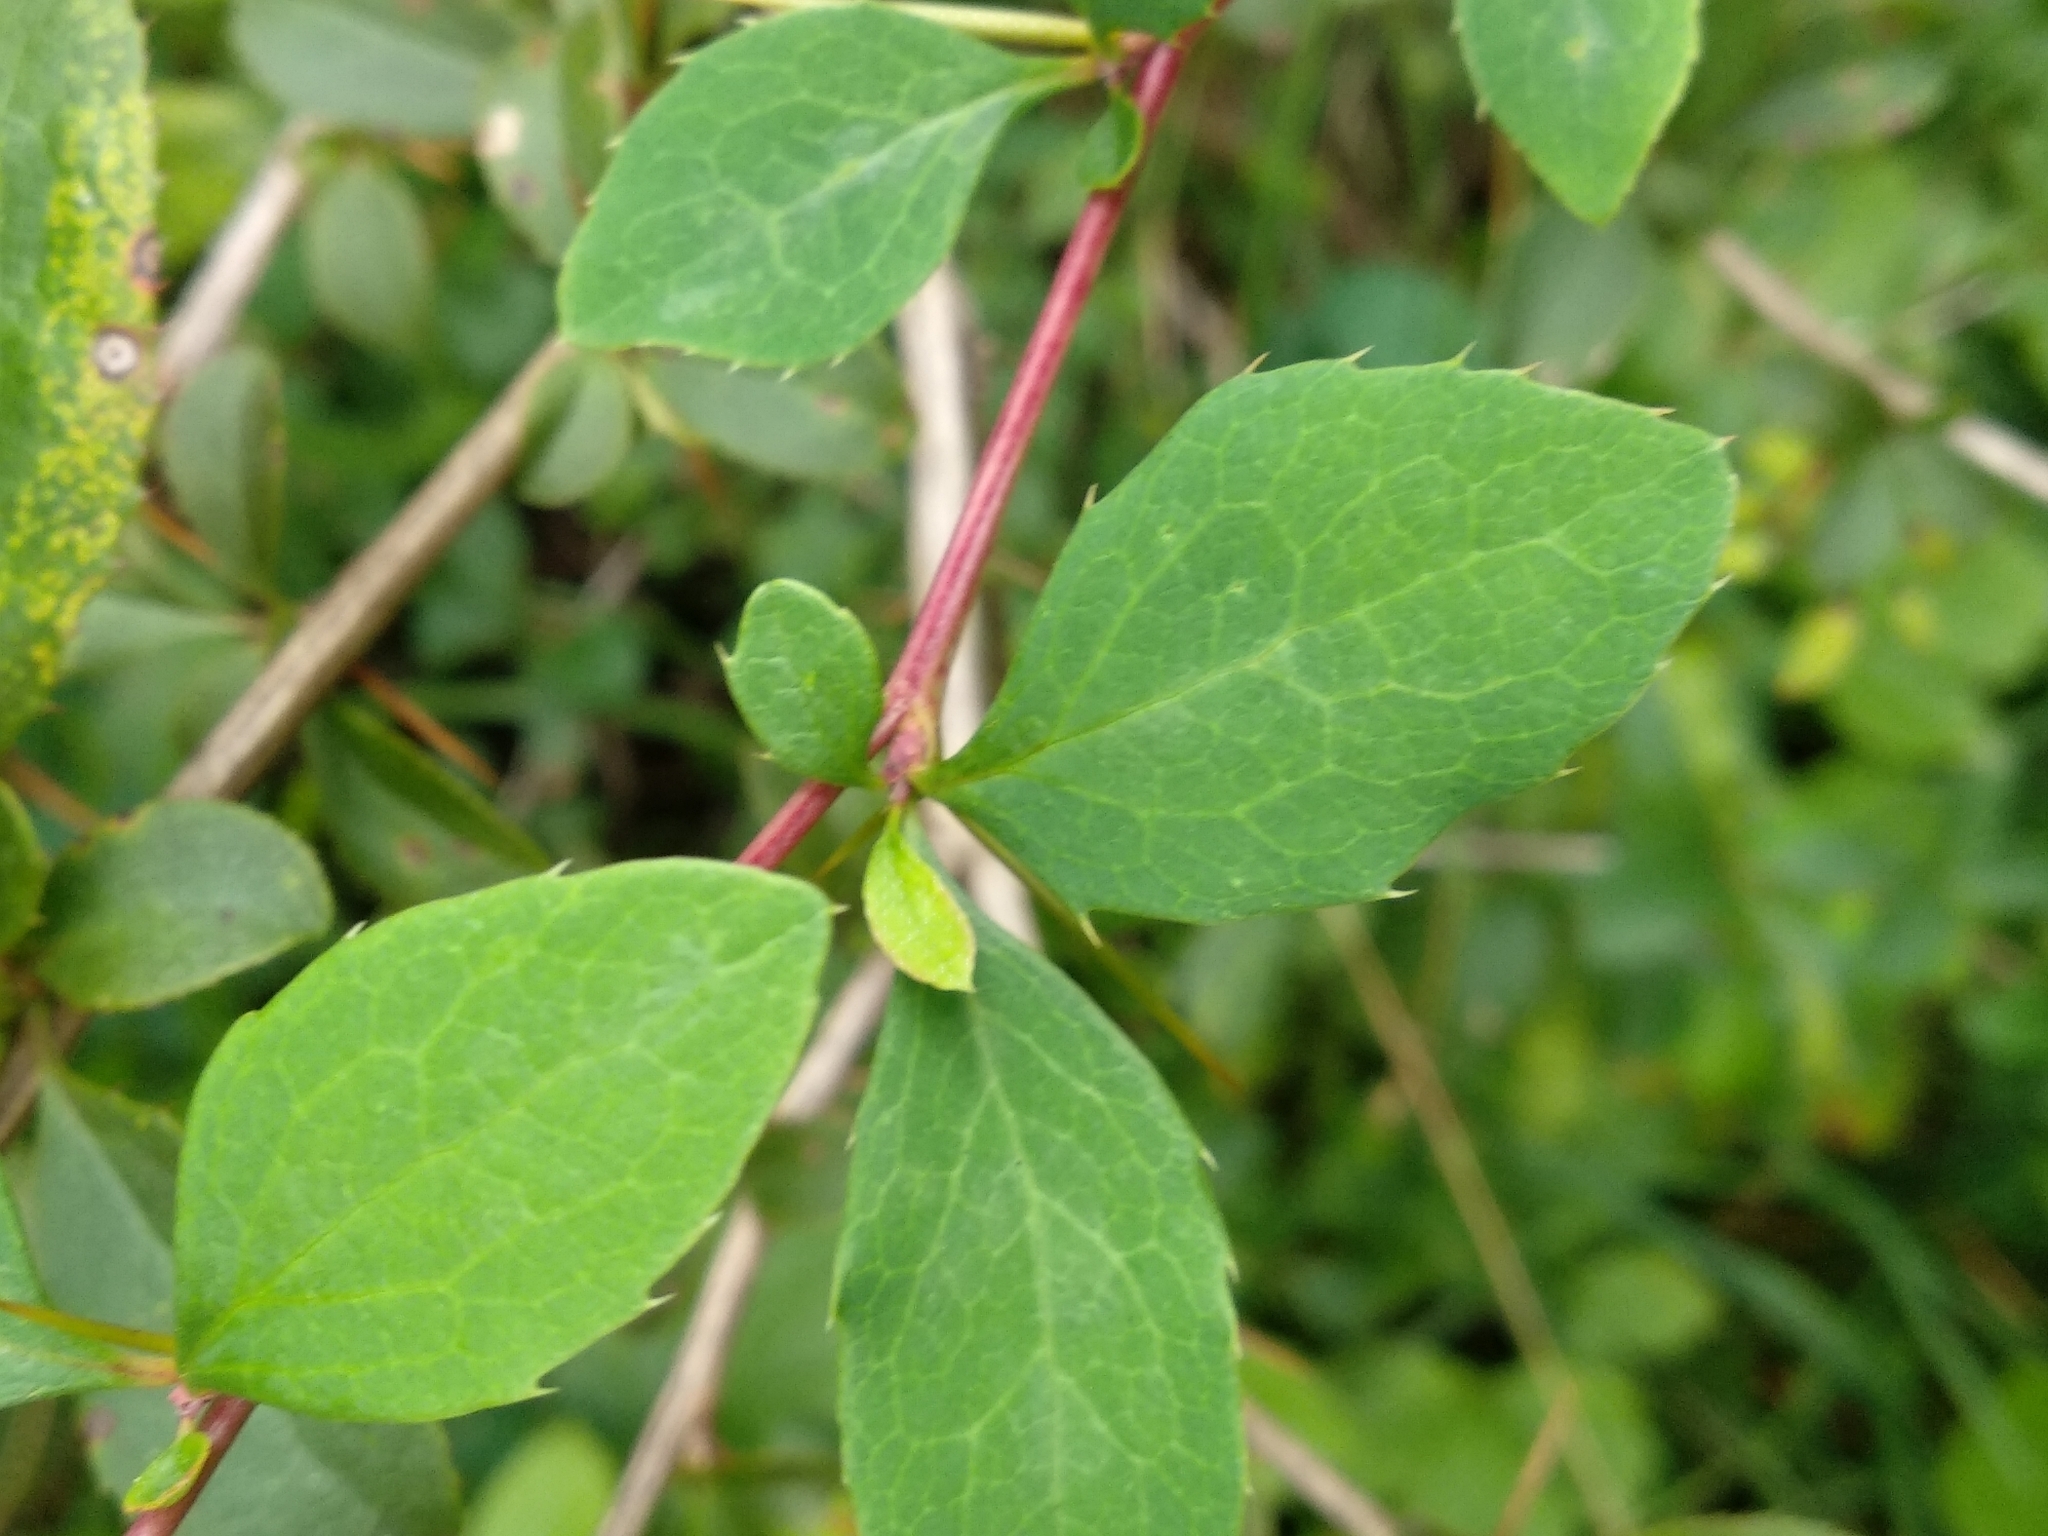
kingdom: Plantae
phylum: Tracheophyta
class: Magnoliopsida
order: Ranunculales
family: Berberidaceae
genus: Berberis
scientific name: Berberis vulgaris
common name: Barberry
